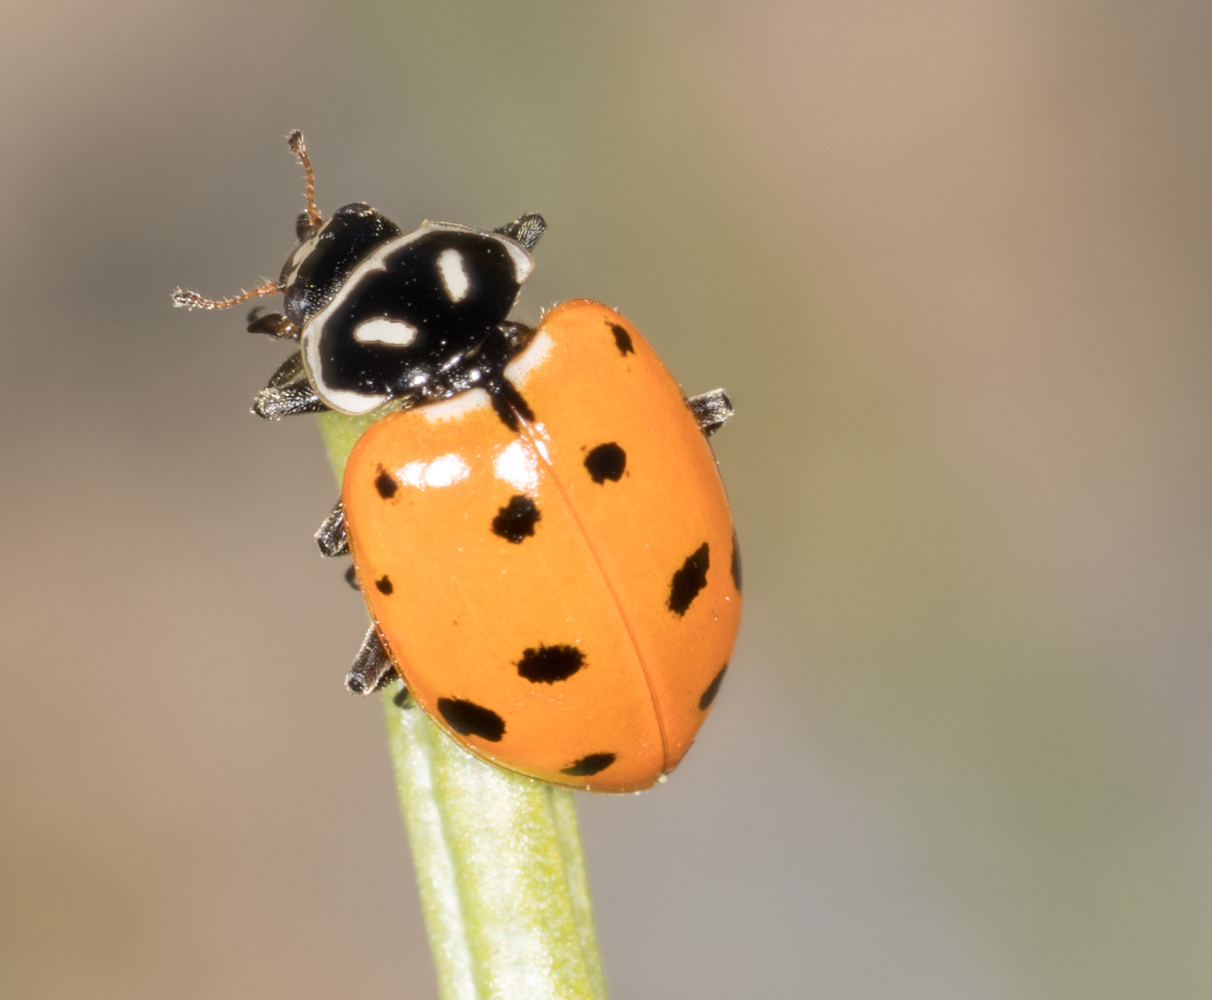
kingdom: Animalia
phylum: Arthropoda
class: Insecta
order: Coleoptera
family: Coccinellidae
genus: Hippodamia
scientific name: Hippodamia convergens
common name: Convergent lady beetle
